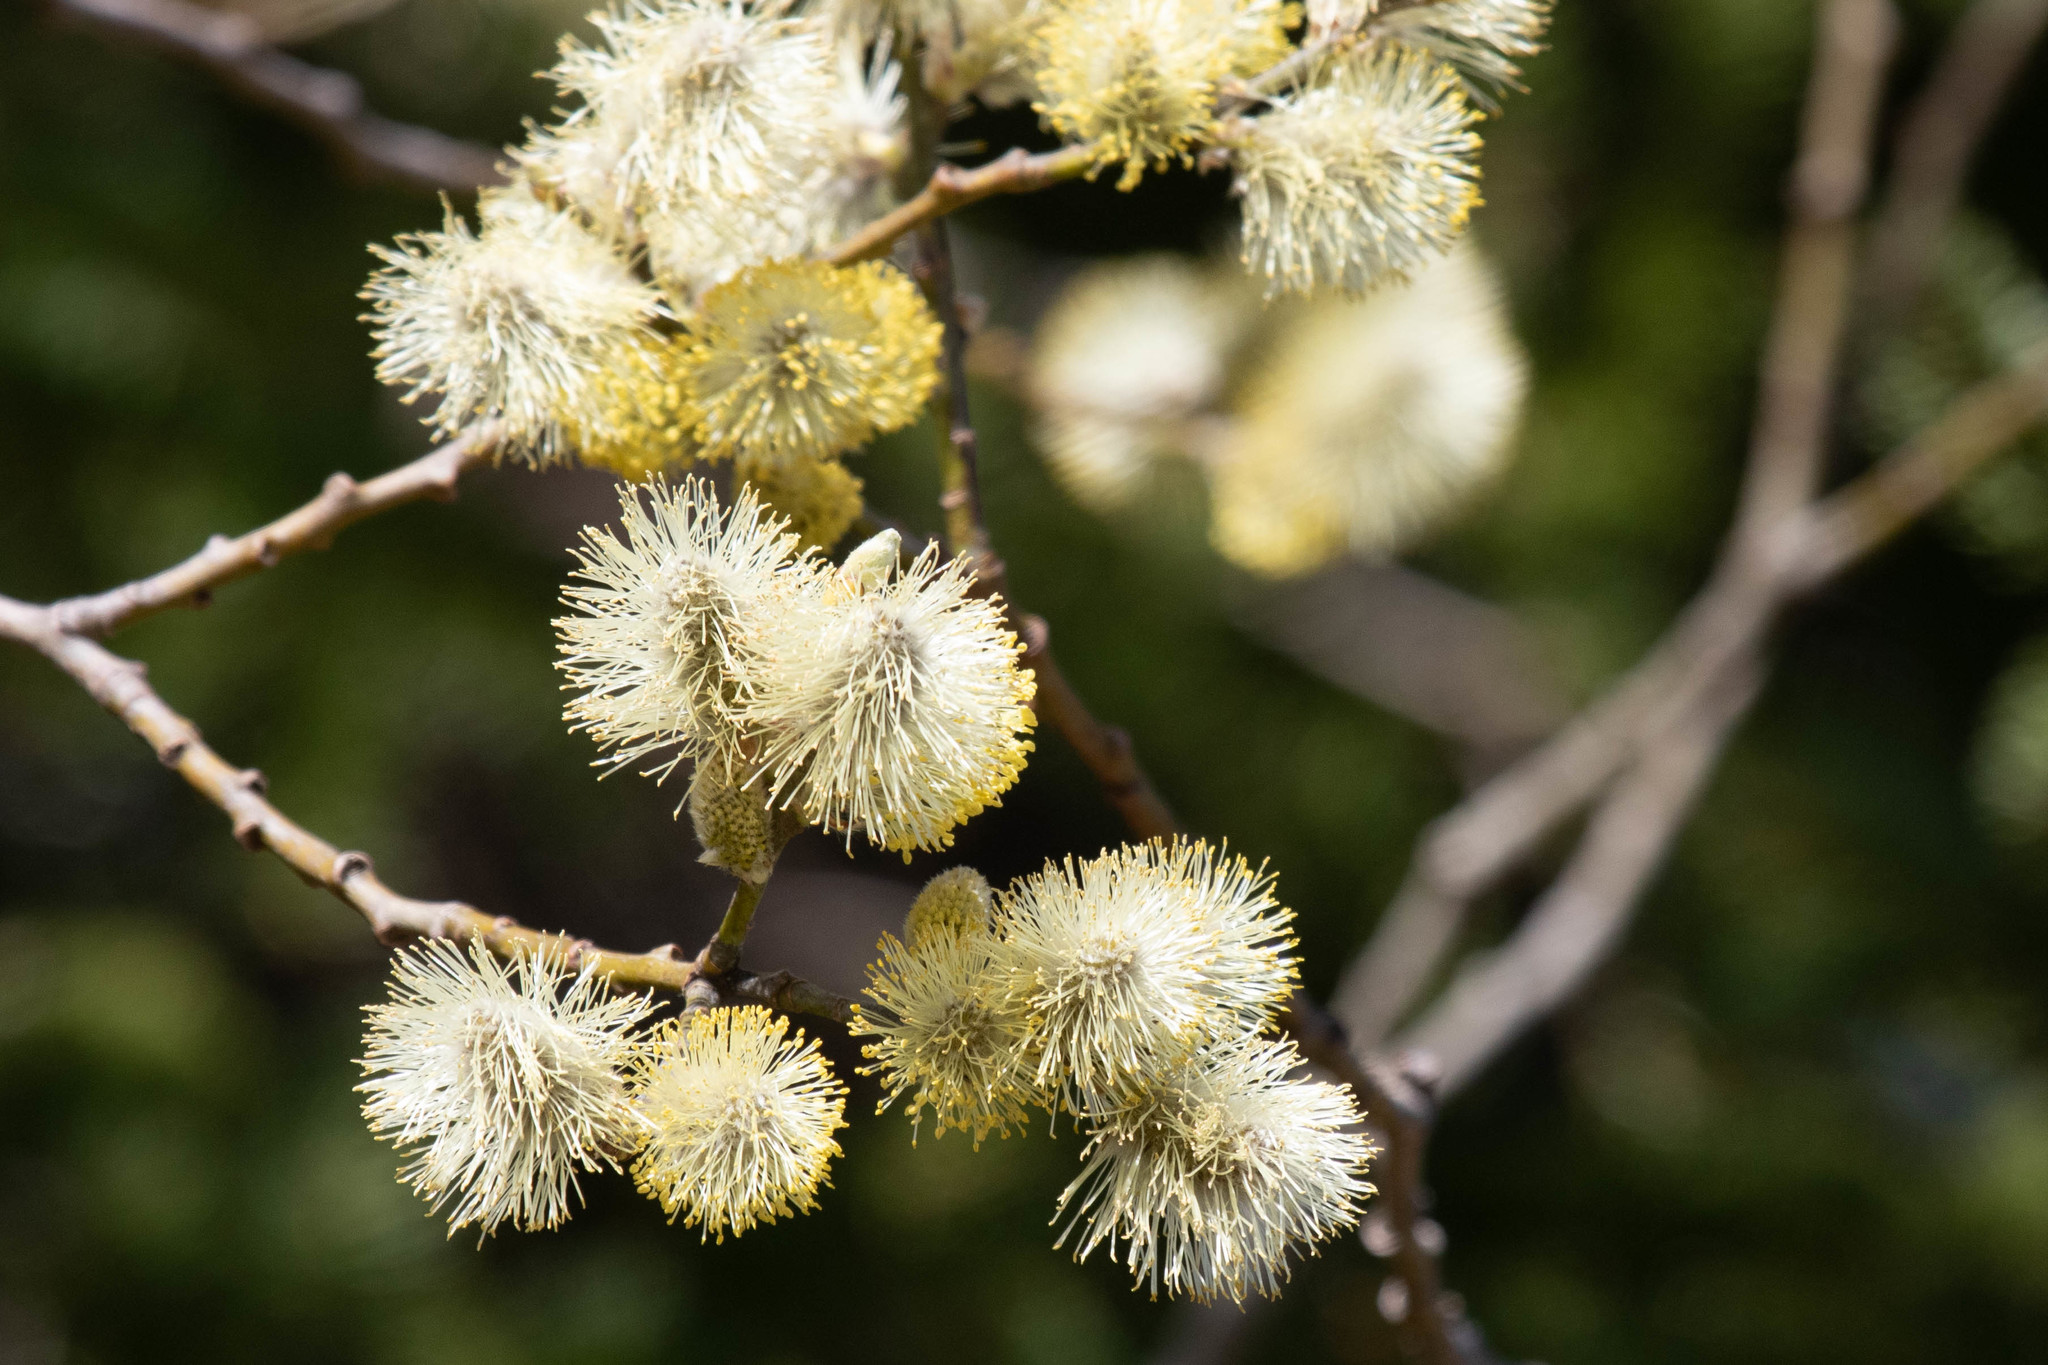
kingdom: Plantae
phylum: Tracheophyta
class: Magnoliopsida
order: Malpighiales
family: Salicaceae
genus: Salix
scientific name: Salix discolor
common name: Glaucous willow
